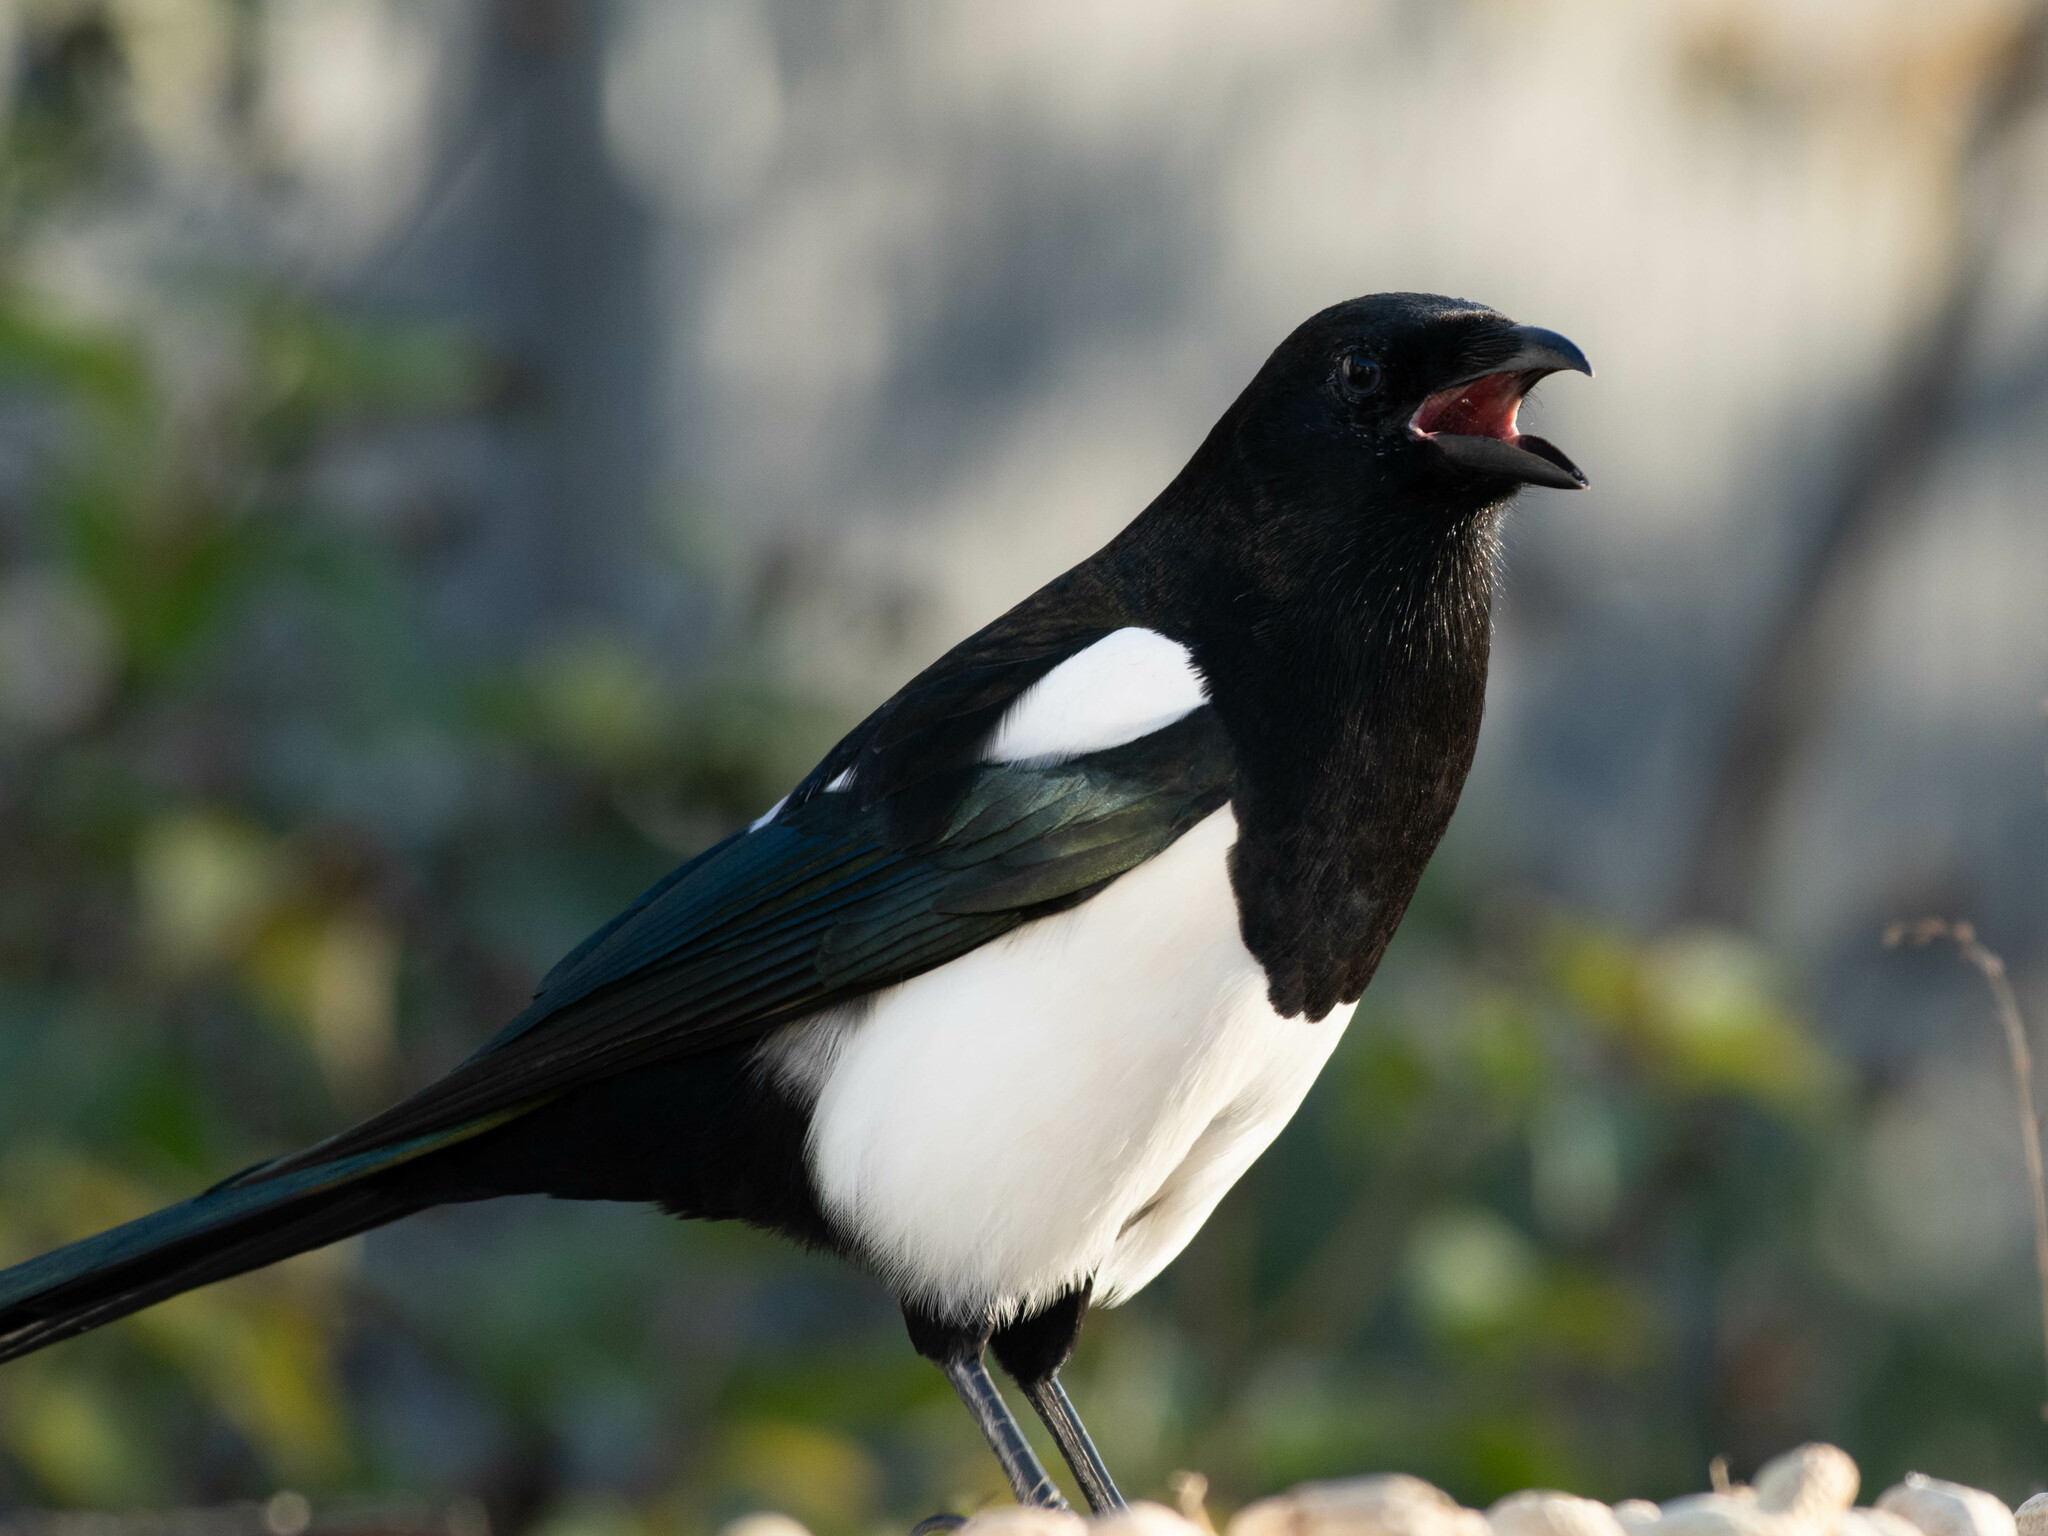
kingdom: Animalia
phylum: Chordata
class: Aves
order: Passeriformes
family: Corvidae
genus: Pica
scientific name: Pica hudsonia
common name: Black-billed magpie
